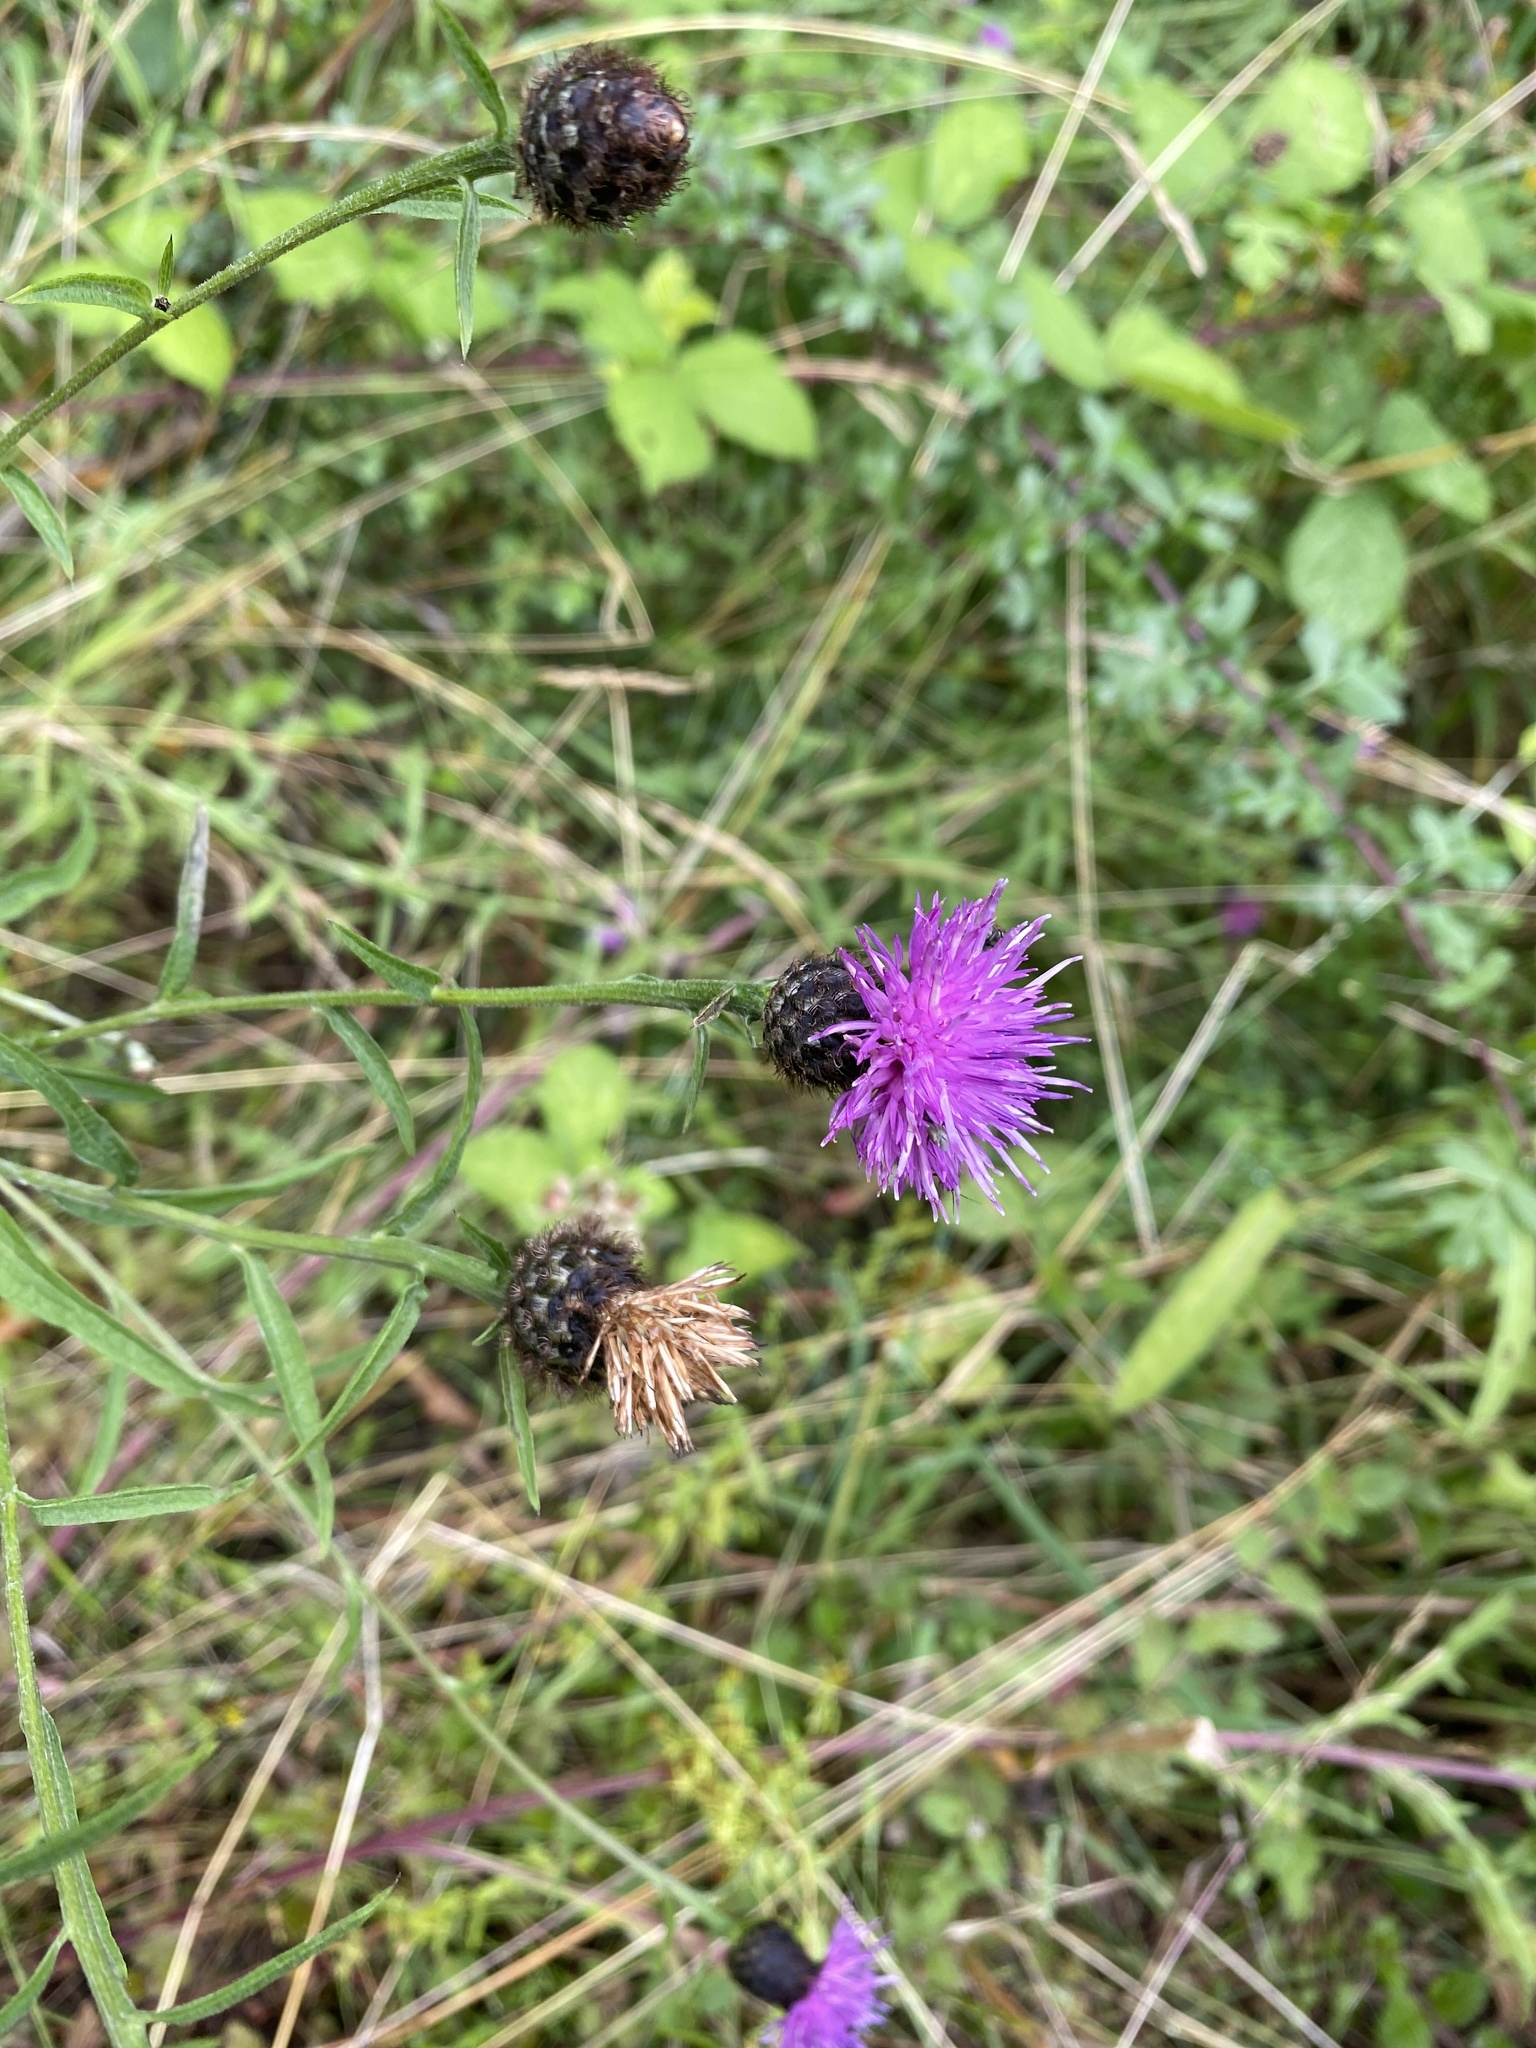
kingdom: Plantae
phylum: Tracheophyta
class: Magnoliopsida
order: Asterales
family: Asteraceae
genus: Centaurea
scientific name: Centaurea nigra
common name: Lesser knapweed
